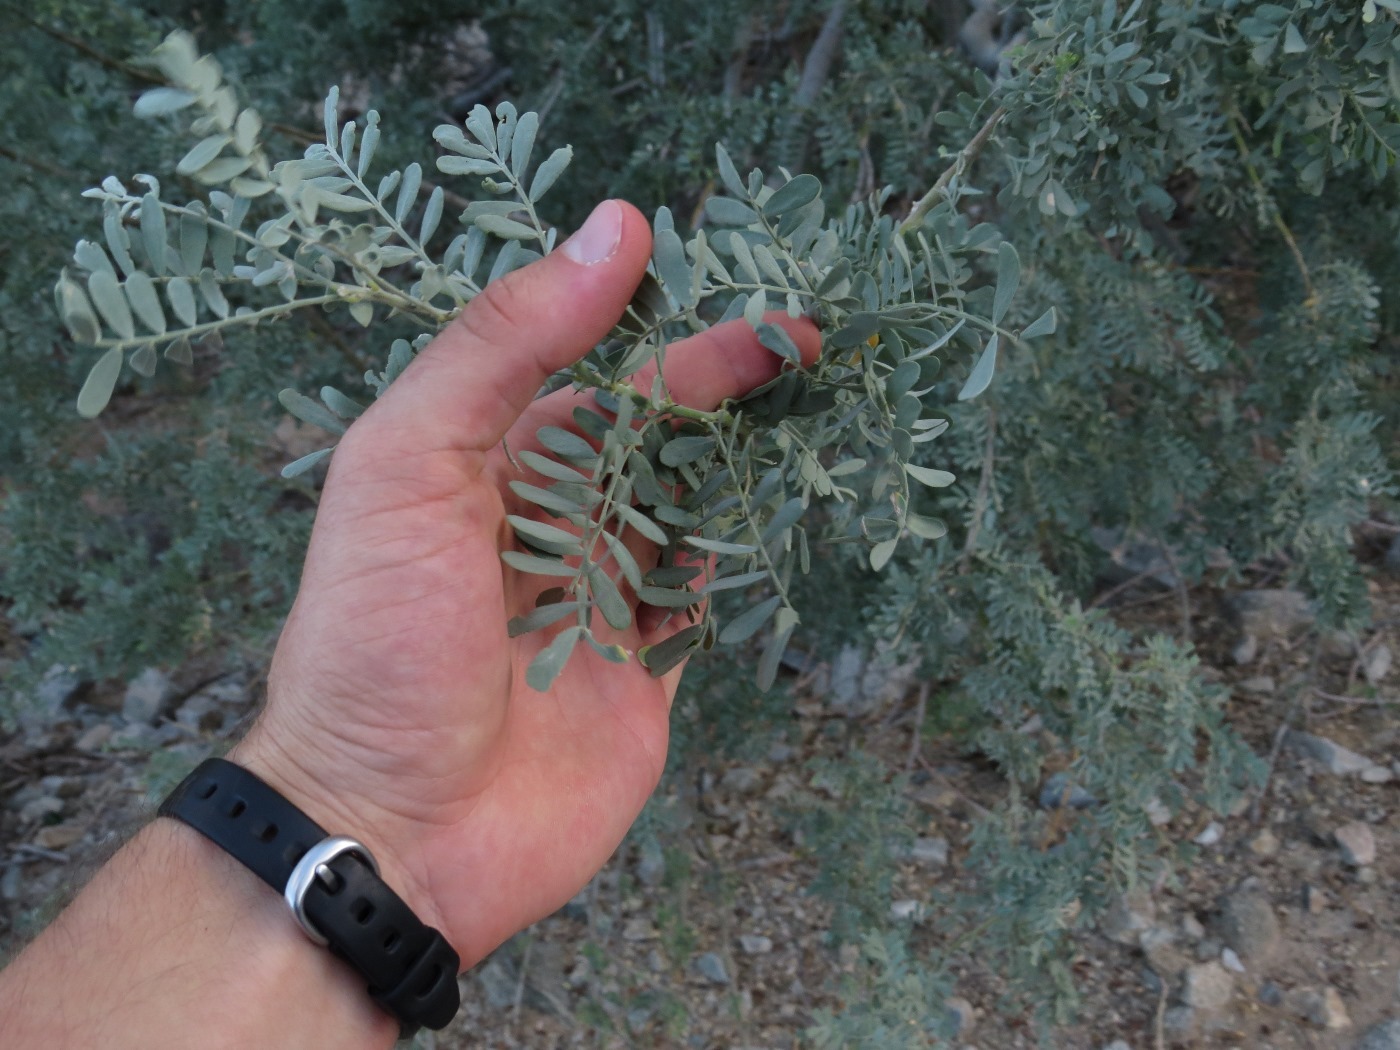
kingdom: Plantae
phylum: Tracheophyta
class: Magnoliopsida
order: Fabales
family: Fabaceae
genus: Olneya
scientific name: Olneya tesota
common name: Desert ironwood
